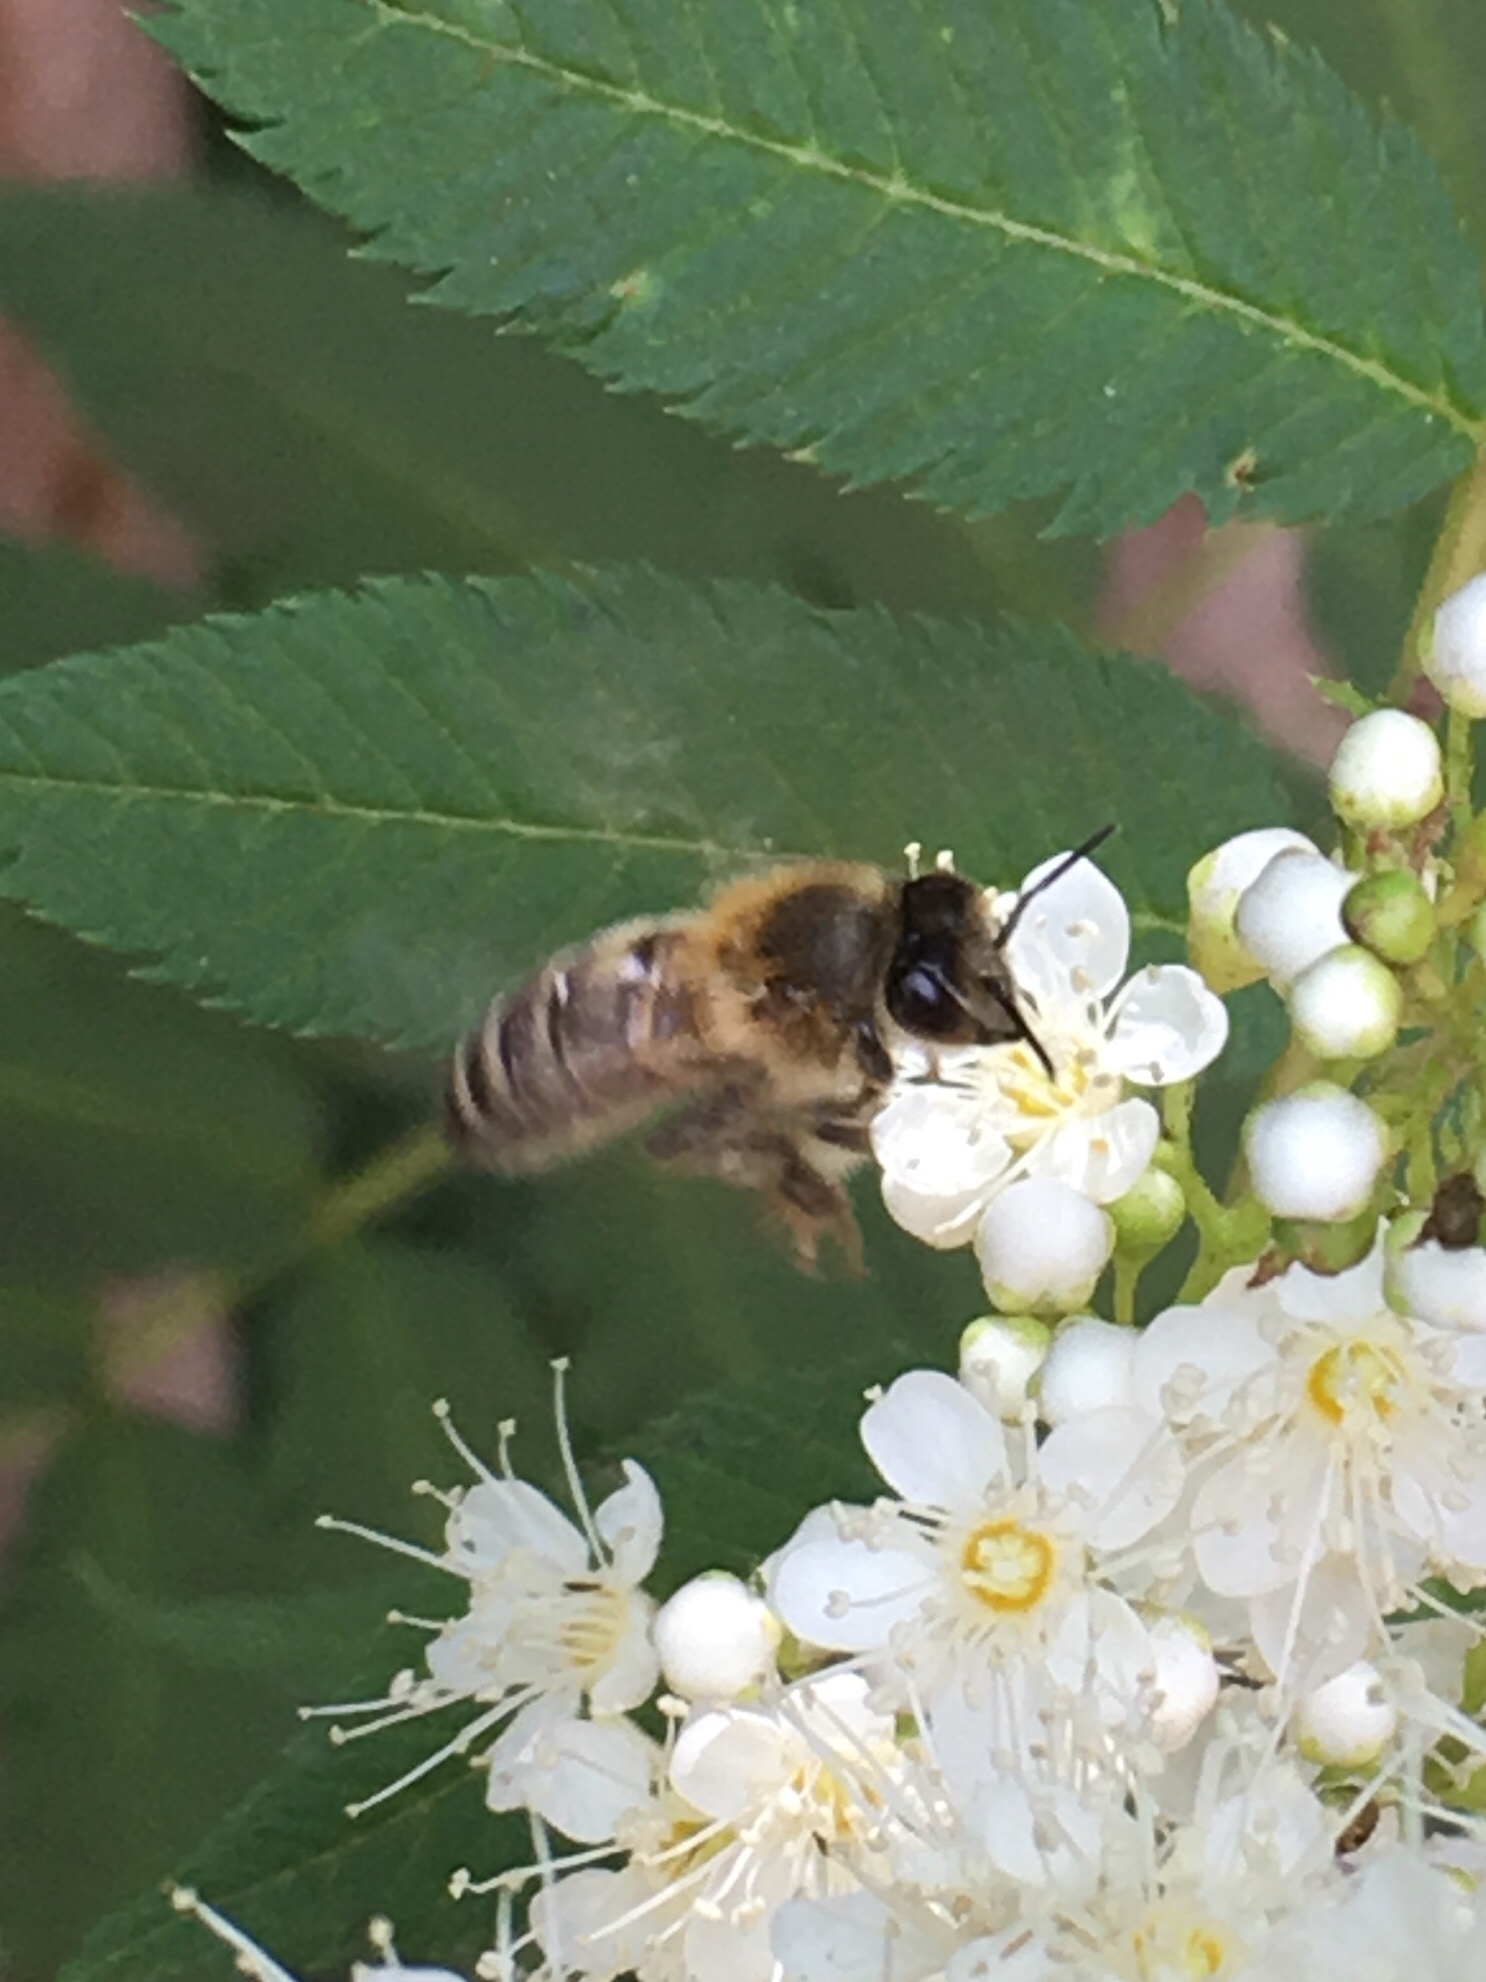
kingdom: Animalia
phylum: Arthropoda
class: Insecta
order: Hymenoptera
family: Apidae
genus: Apis
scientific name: Apis mellifera
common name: Honey bee
